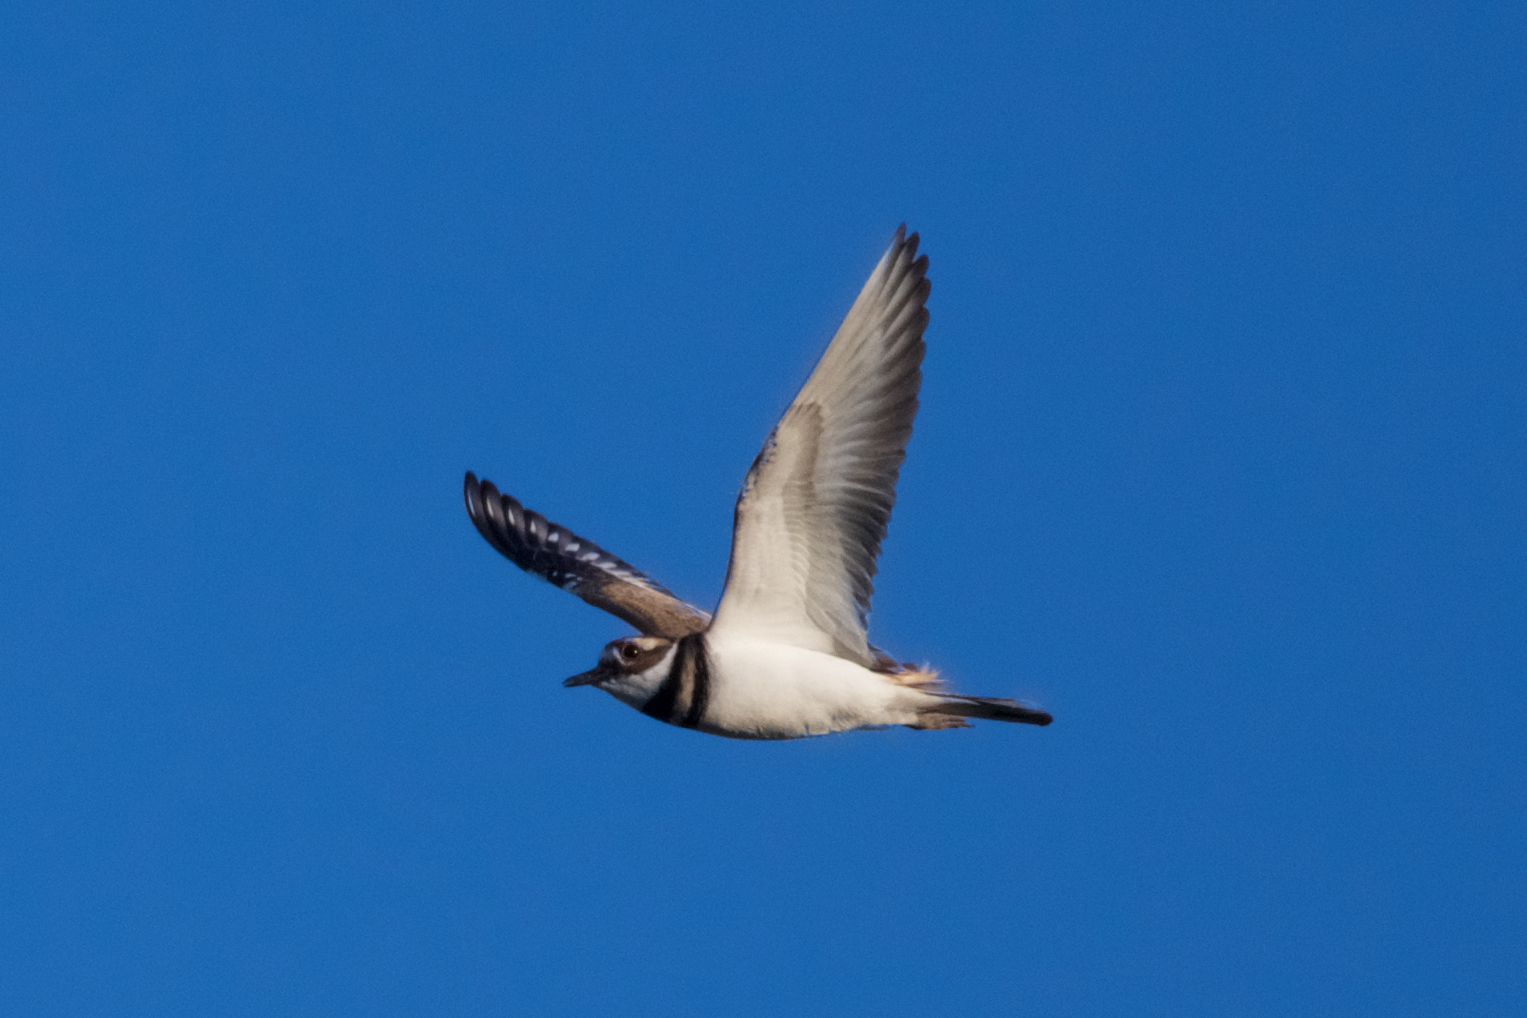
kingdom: Animalia
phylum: Chordata
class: Aves
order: Charadriiformes
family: Charadriidae
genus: Charadrius
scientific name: Charadrius vociferus
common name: Killdeer
